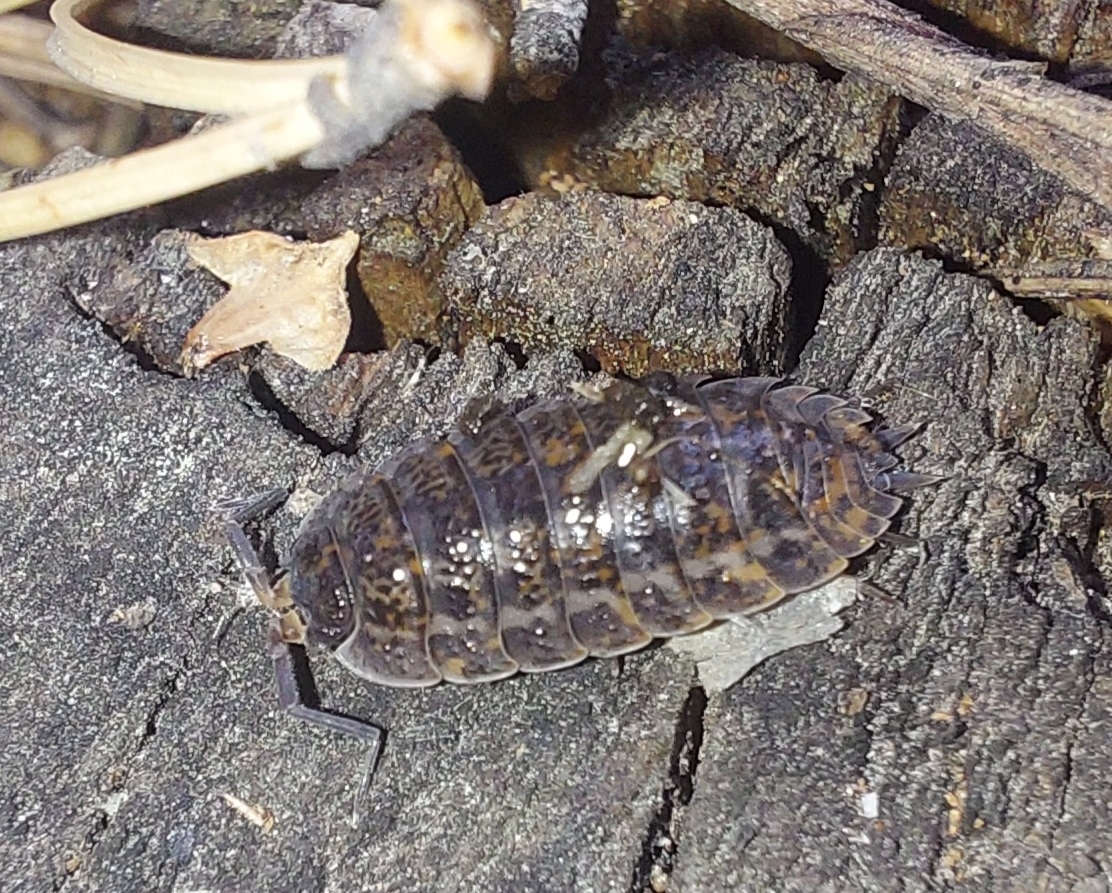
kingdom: Animalia
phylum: Arthropoda
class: Malacostraca
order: Isopoda
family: Trachelipodidae
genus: Trachelipus
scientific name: Trachelipus rathkii
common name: Isopod
